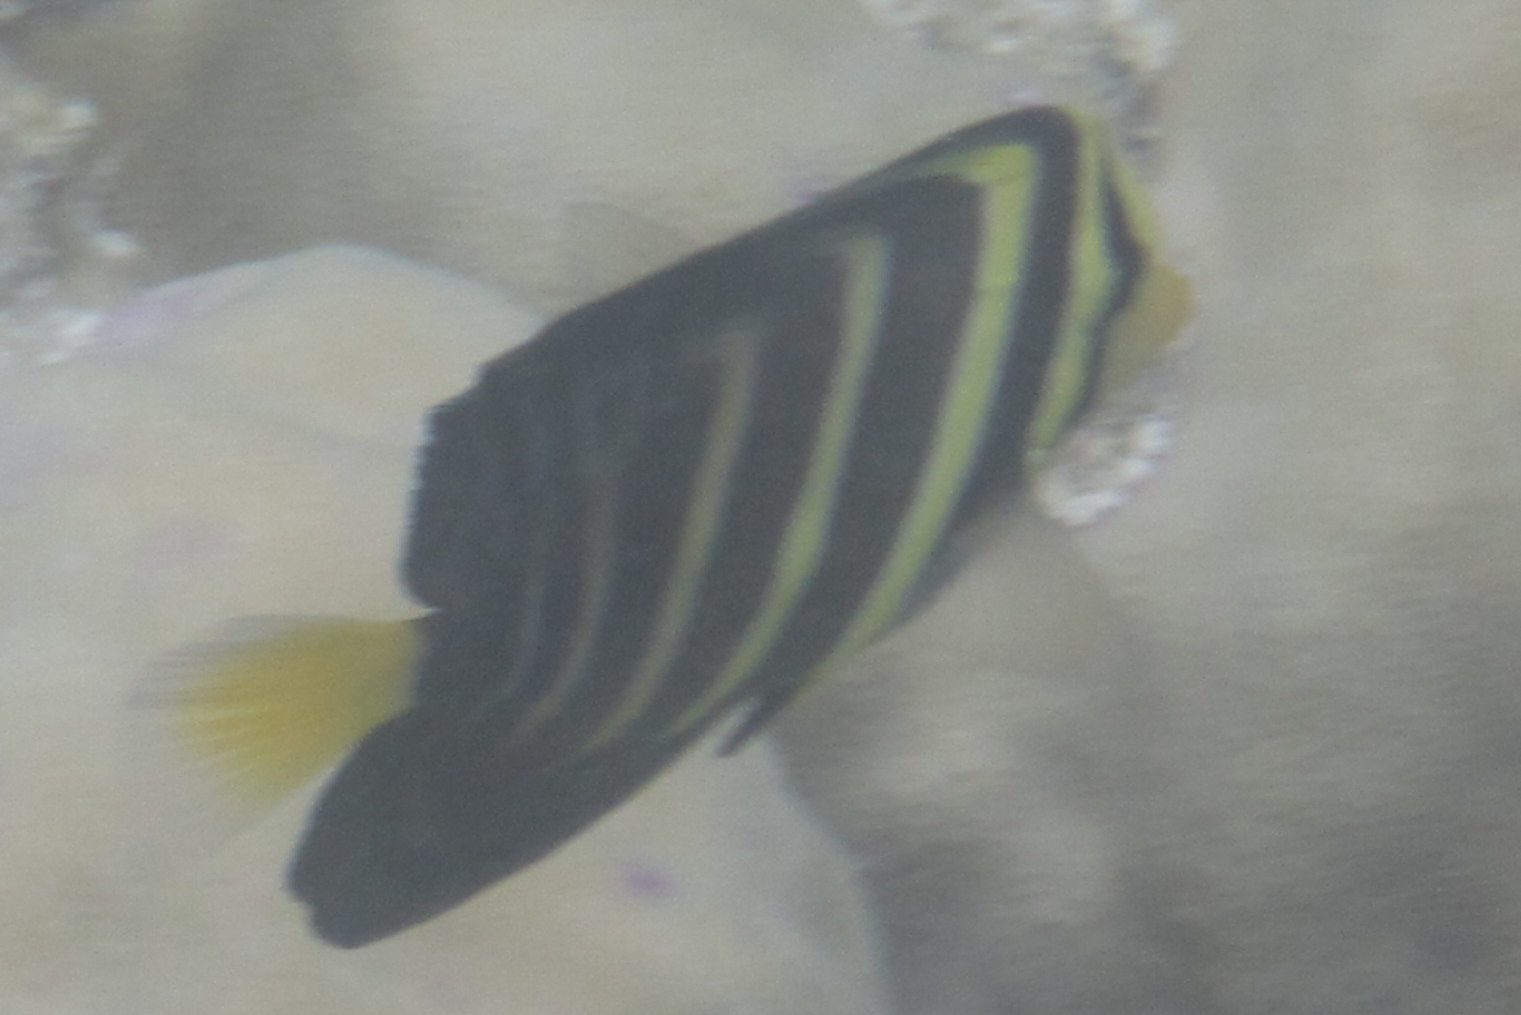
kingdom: Animalia
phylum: Chordata
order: Perciformes
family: Acanthuridae
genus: Zebrasoma
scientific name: Zebrasoma veliferum
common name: Sailfin surgeonfish
